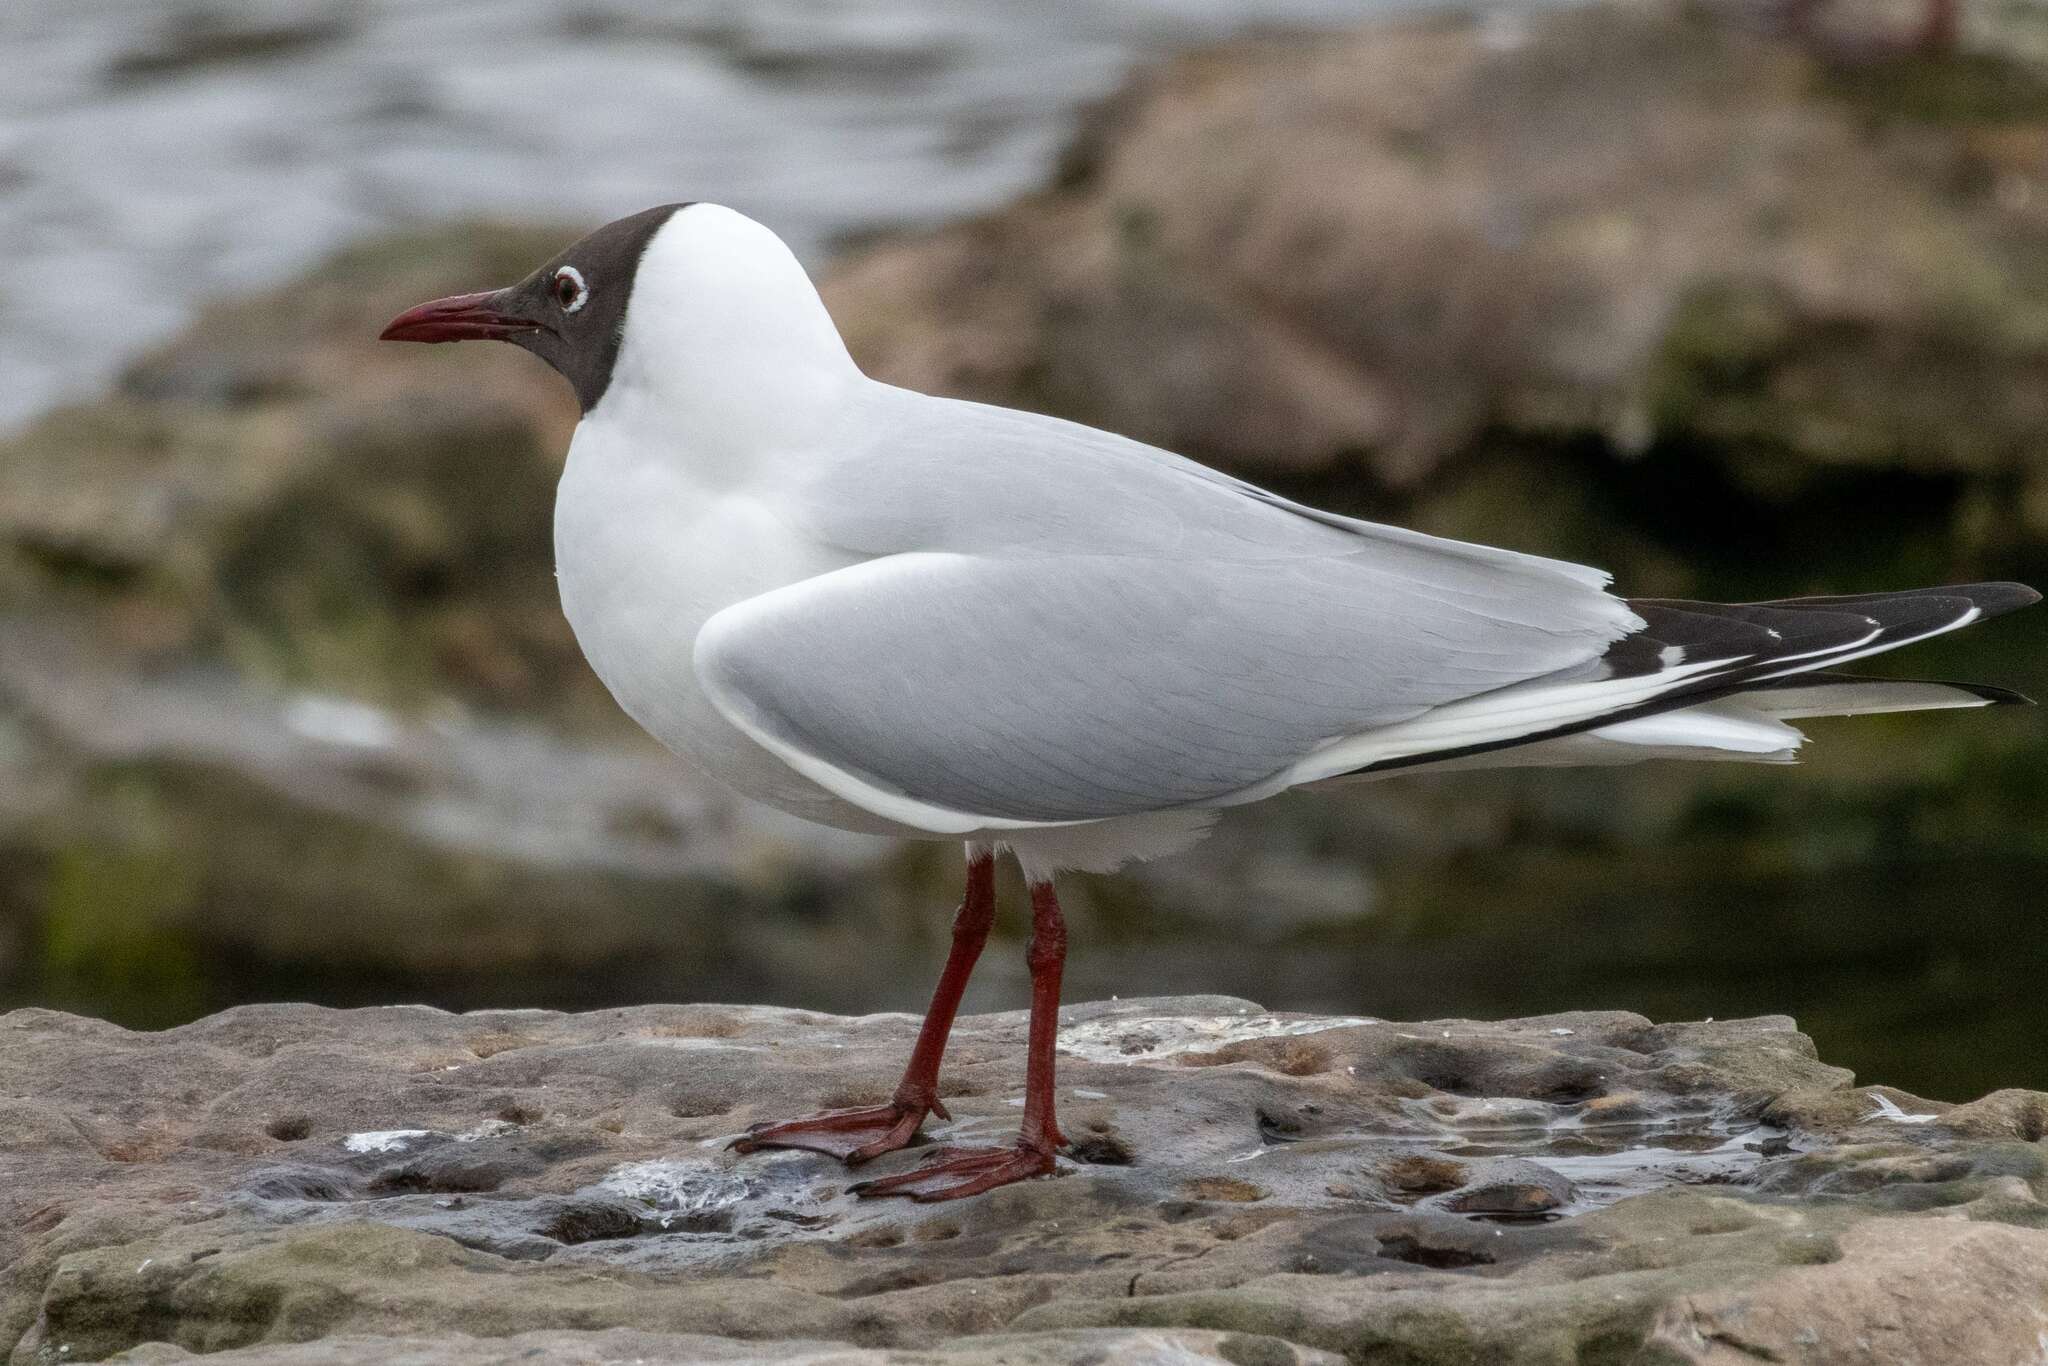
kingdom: Animalia
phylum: Chordata
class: Aves
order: Charadriiformes
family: Laridae
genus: Chroicocephalus
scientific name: Chroicocephalus ridibundus
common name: Black-headed gull
